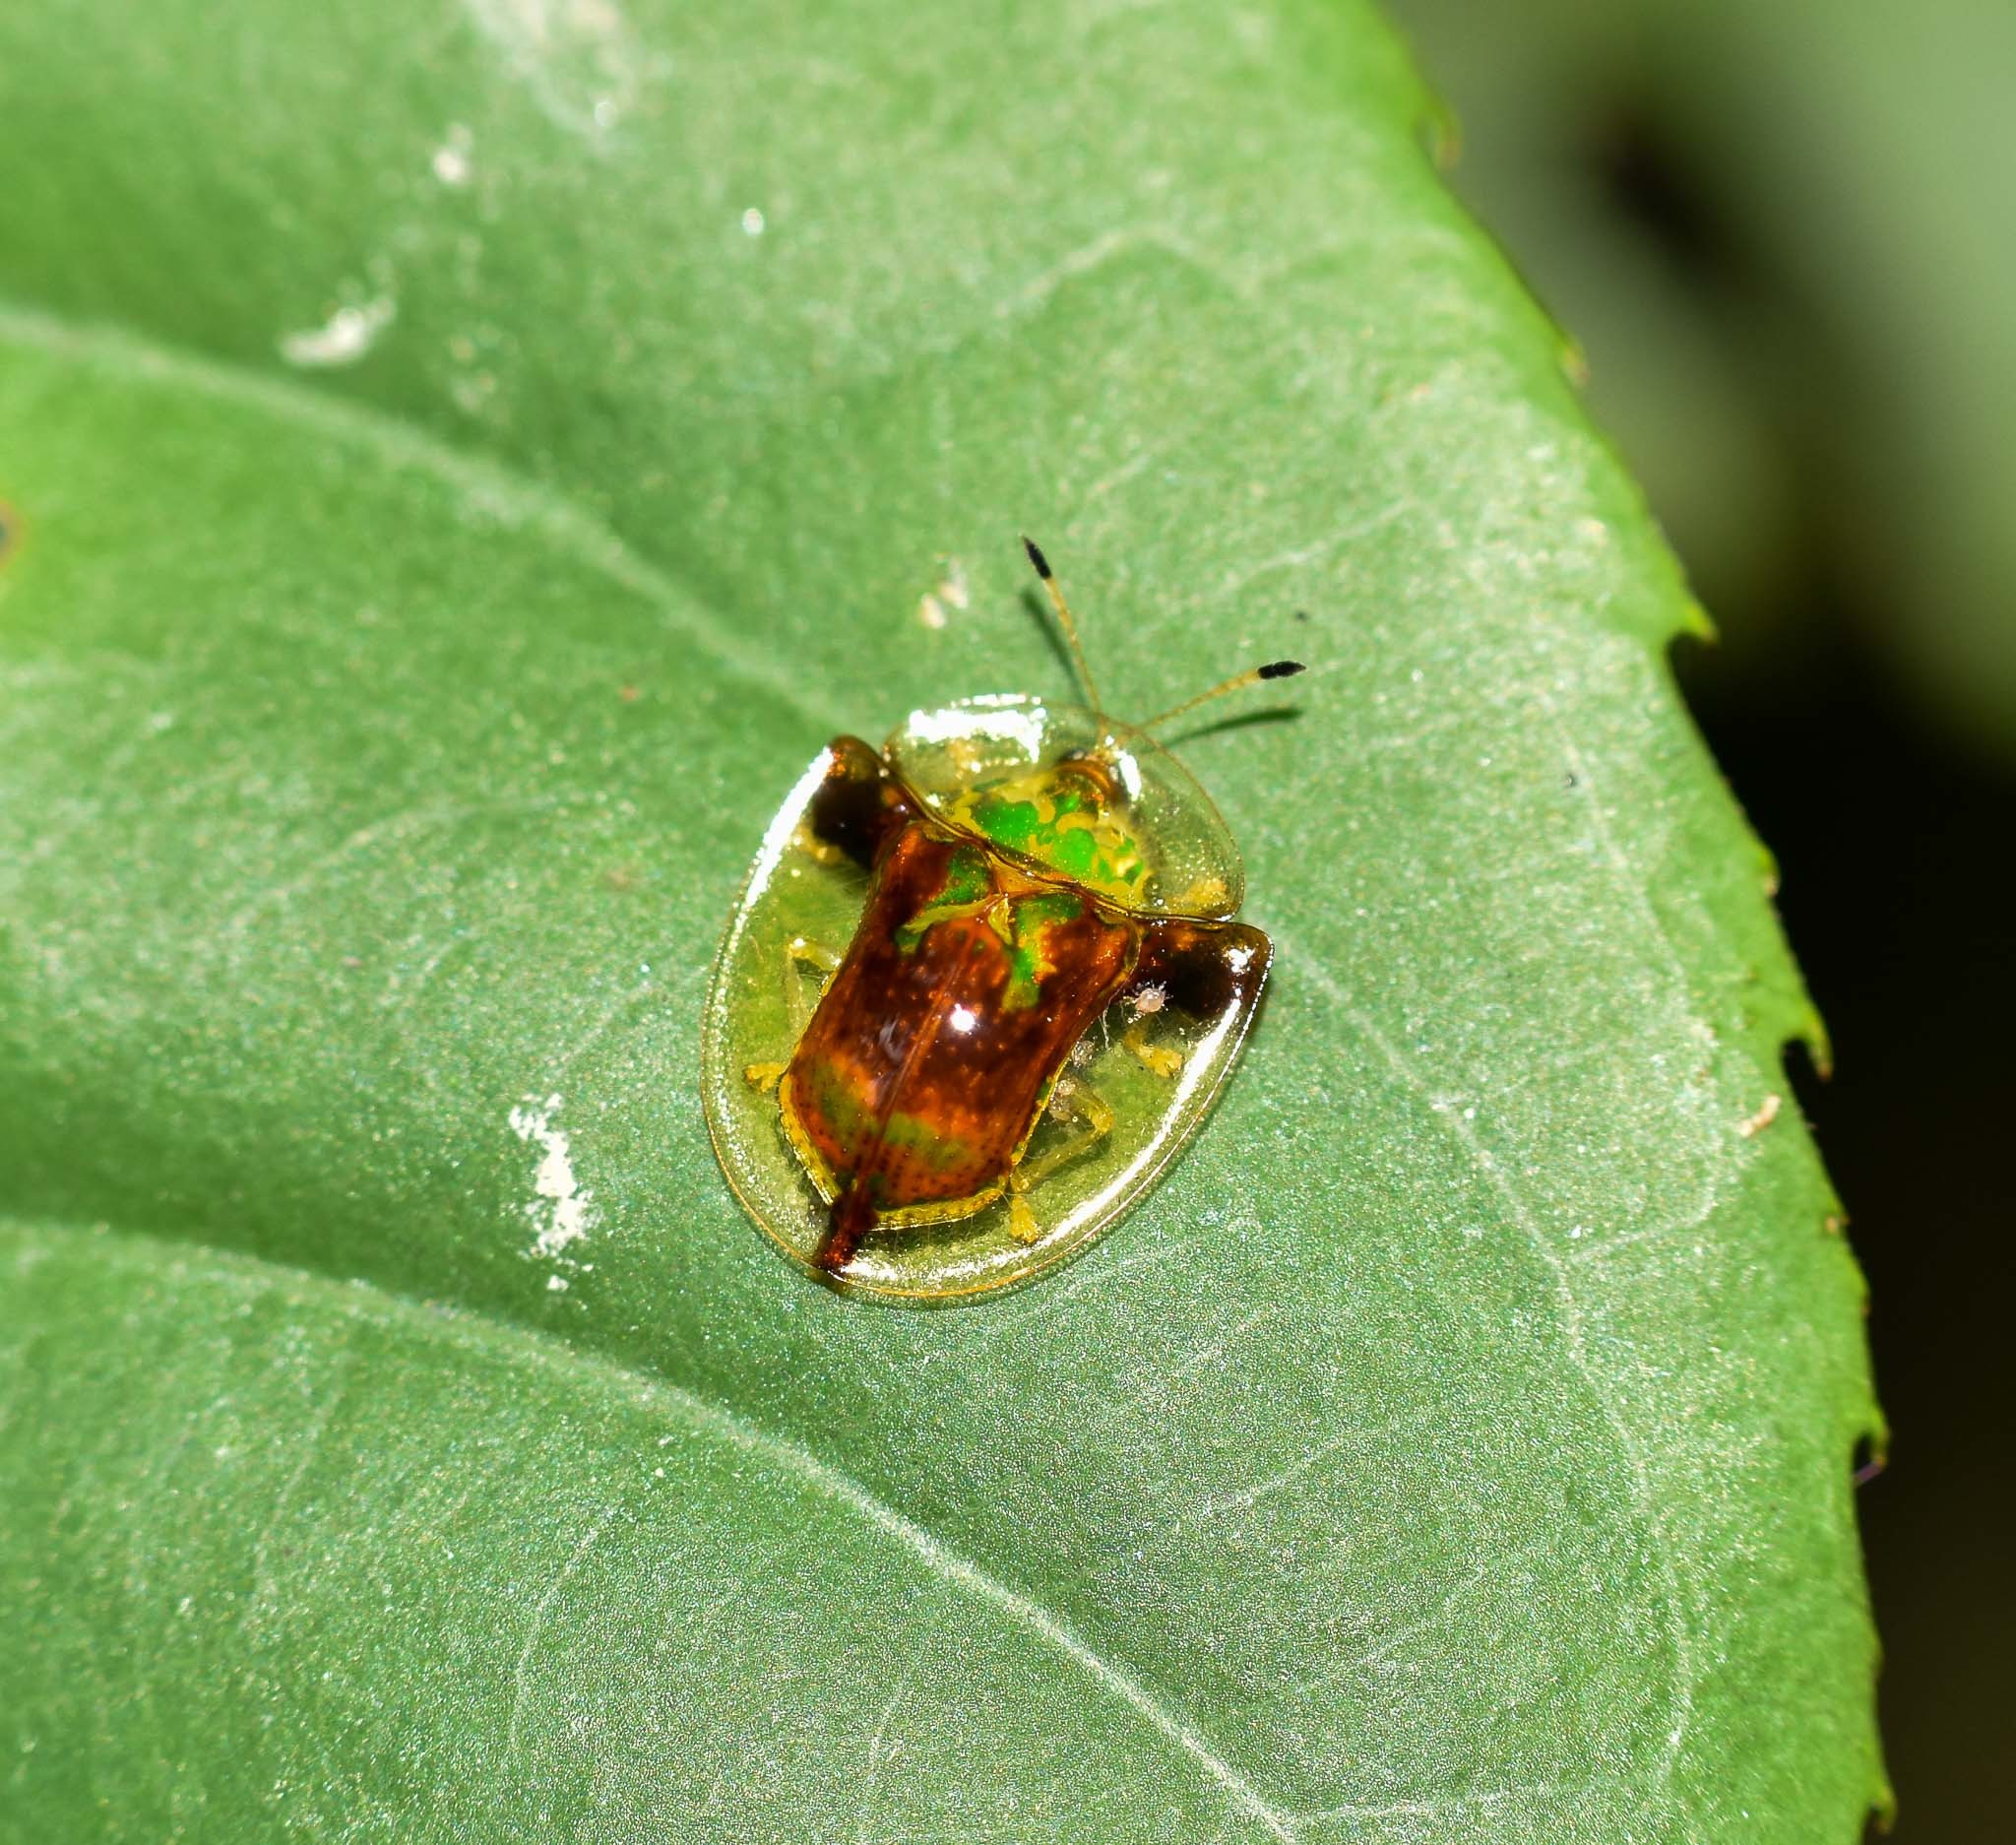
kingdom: Animalia
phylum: Arthropoda
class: Insecta
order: Coleoptera
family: Chrysomelidae
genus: Aspidimorpha
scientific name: Aspidimorpha furcata
